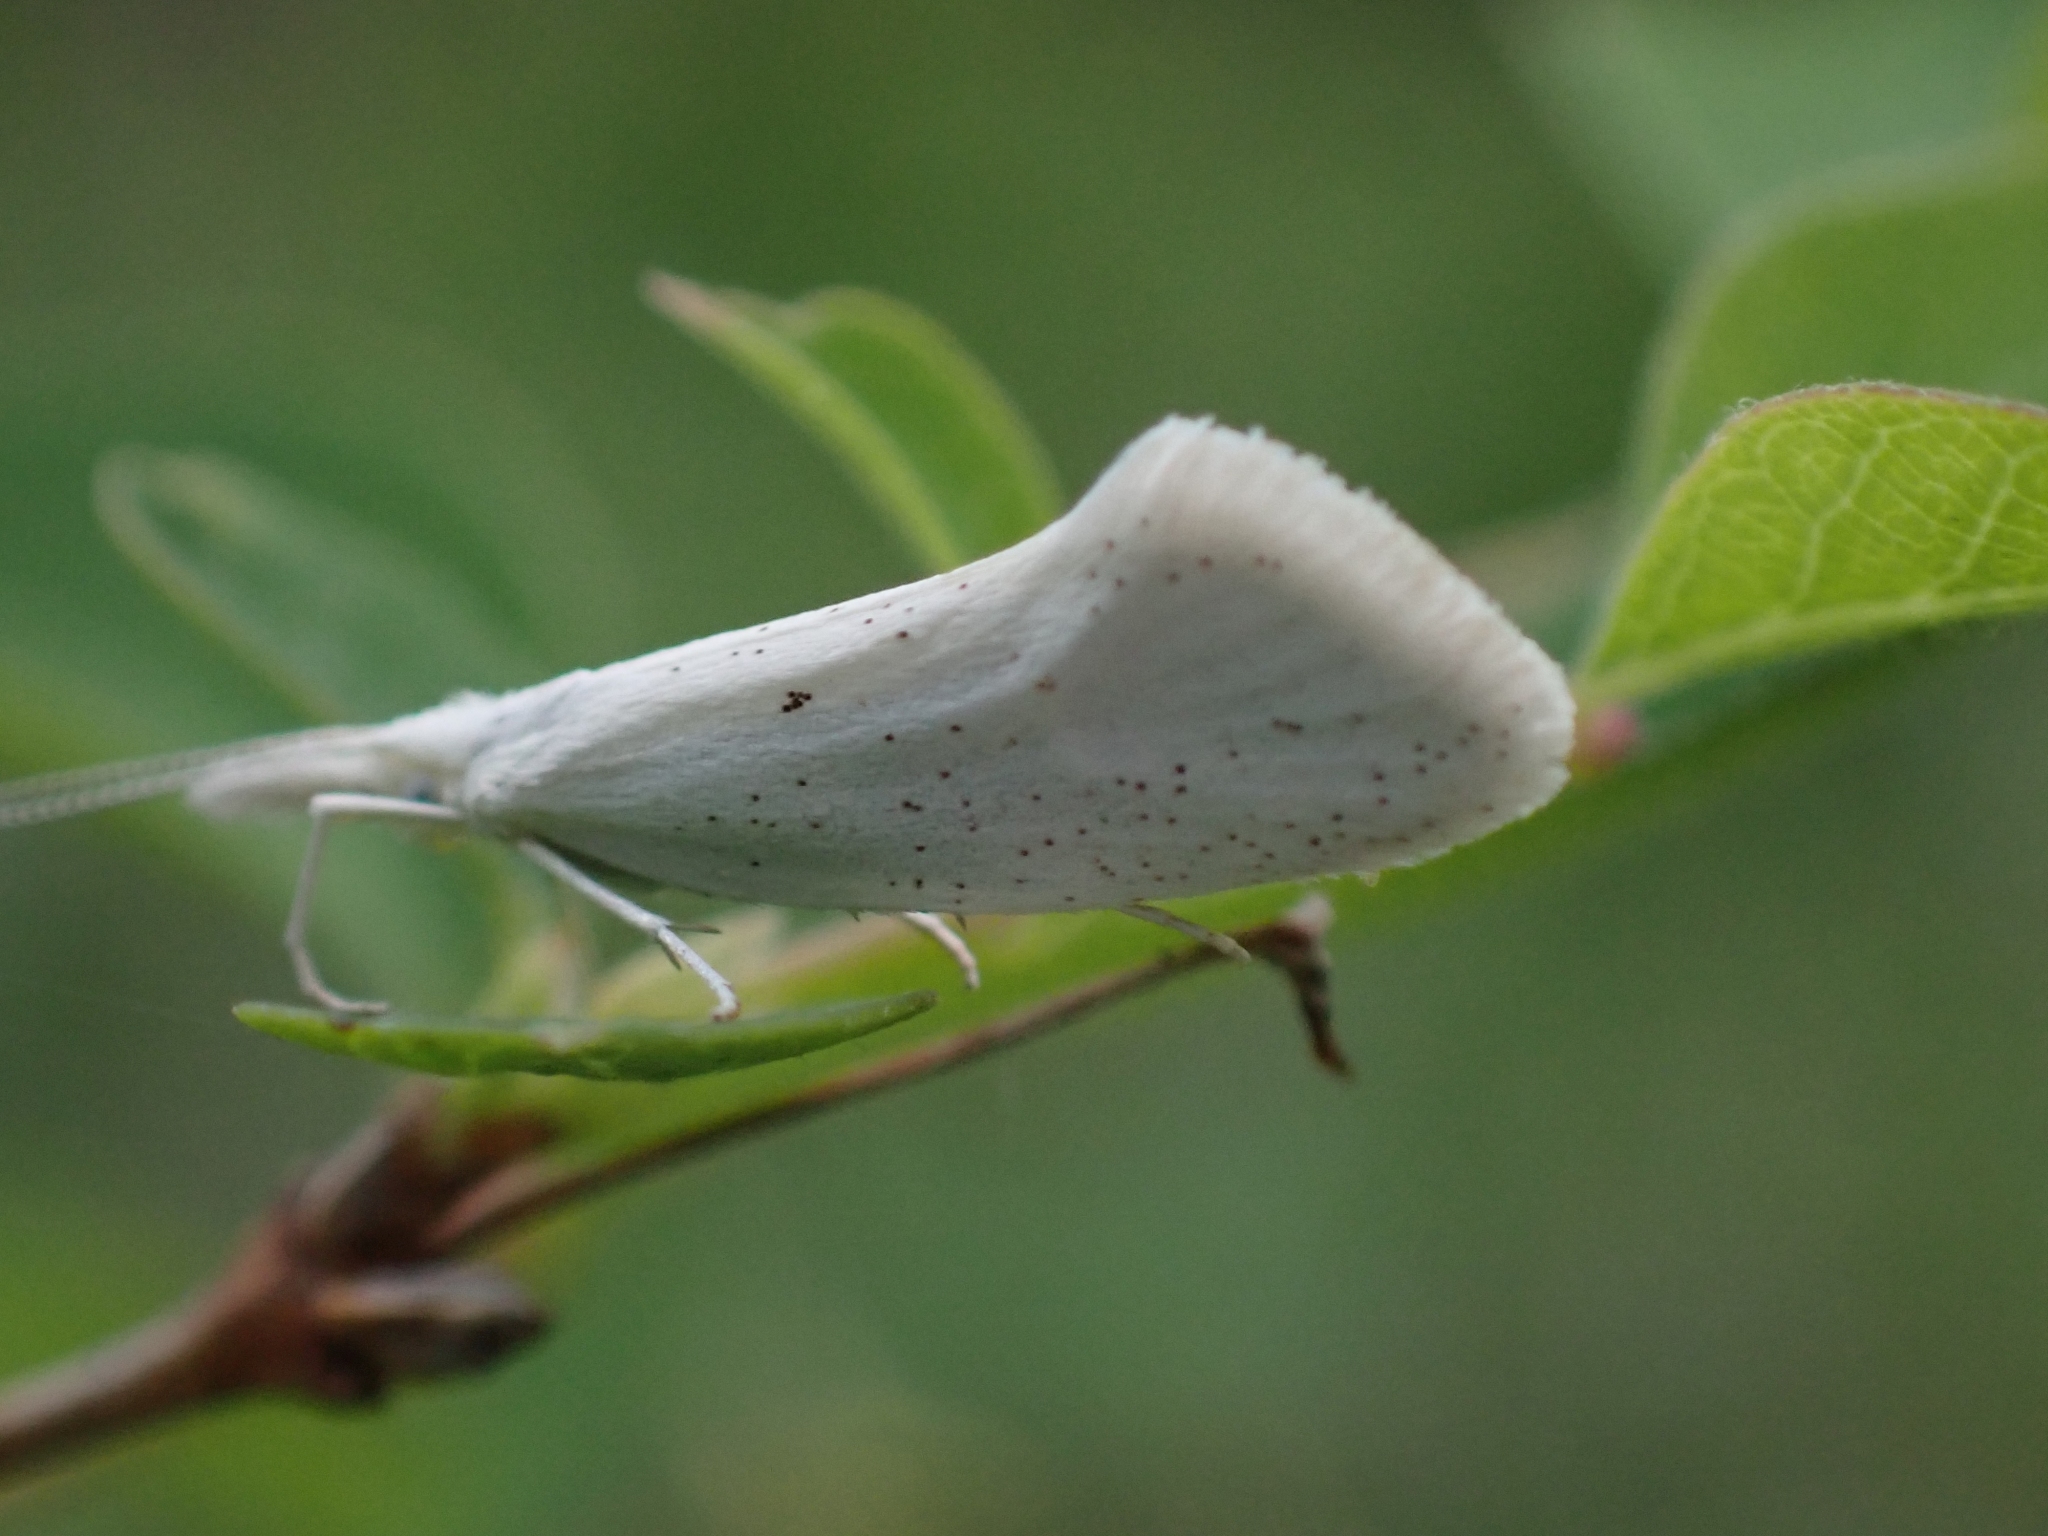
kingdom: Animalia
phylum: Arthropoda
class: Insecta
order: Lepidoptera
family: Ypsolophidae
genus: Euceratia
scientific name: Euceratia castella
